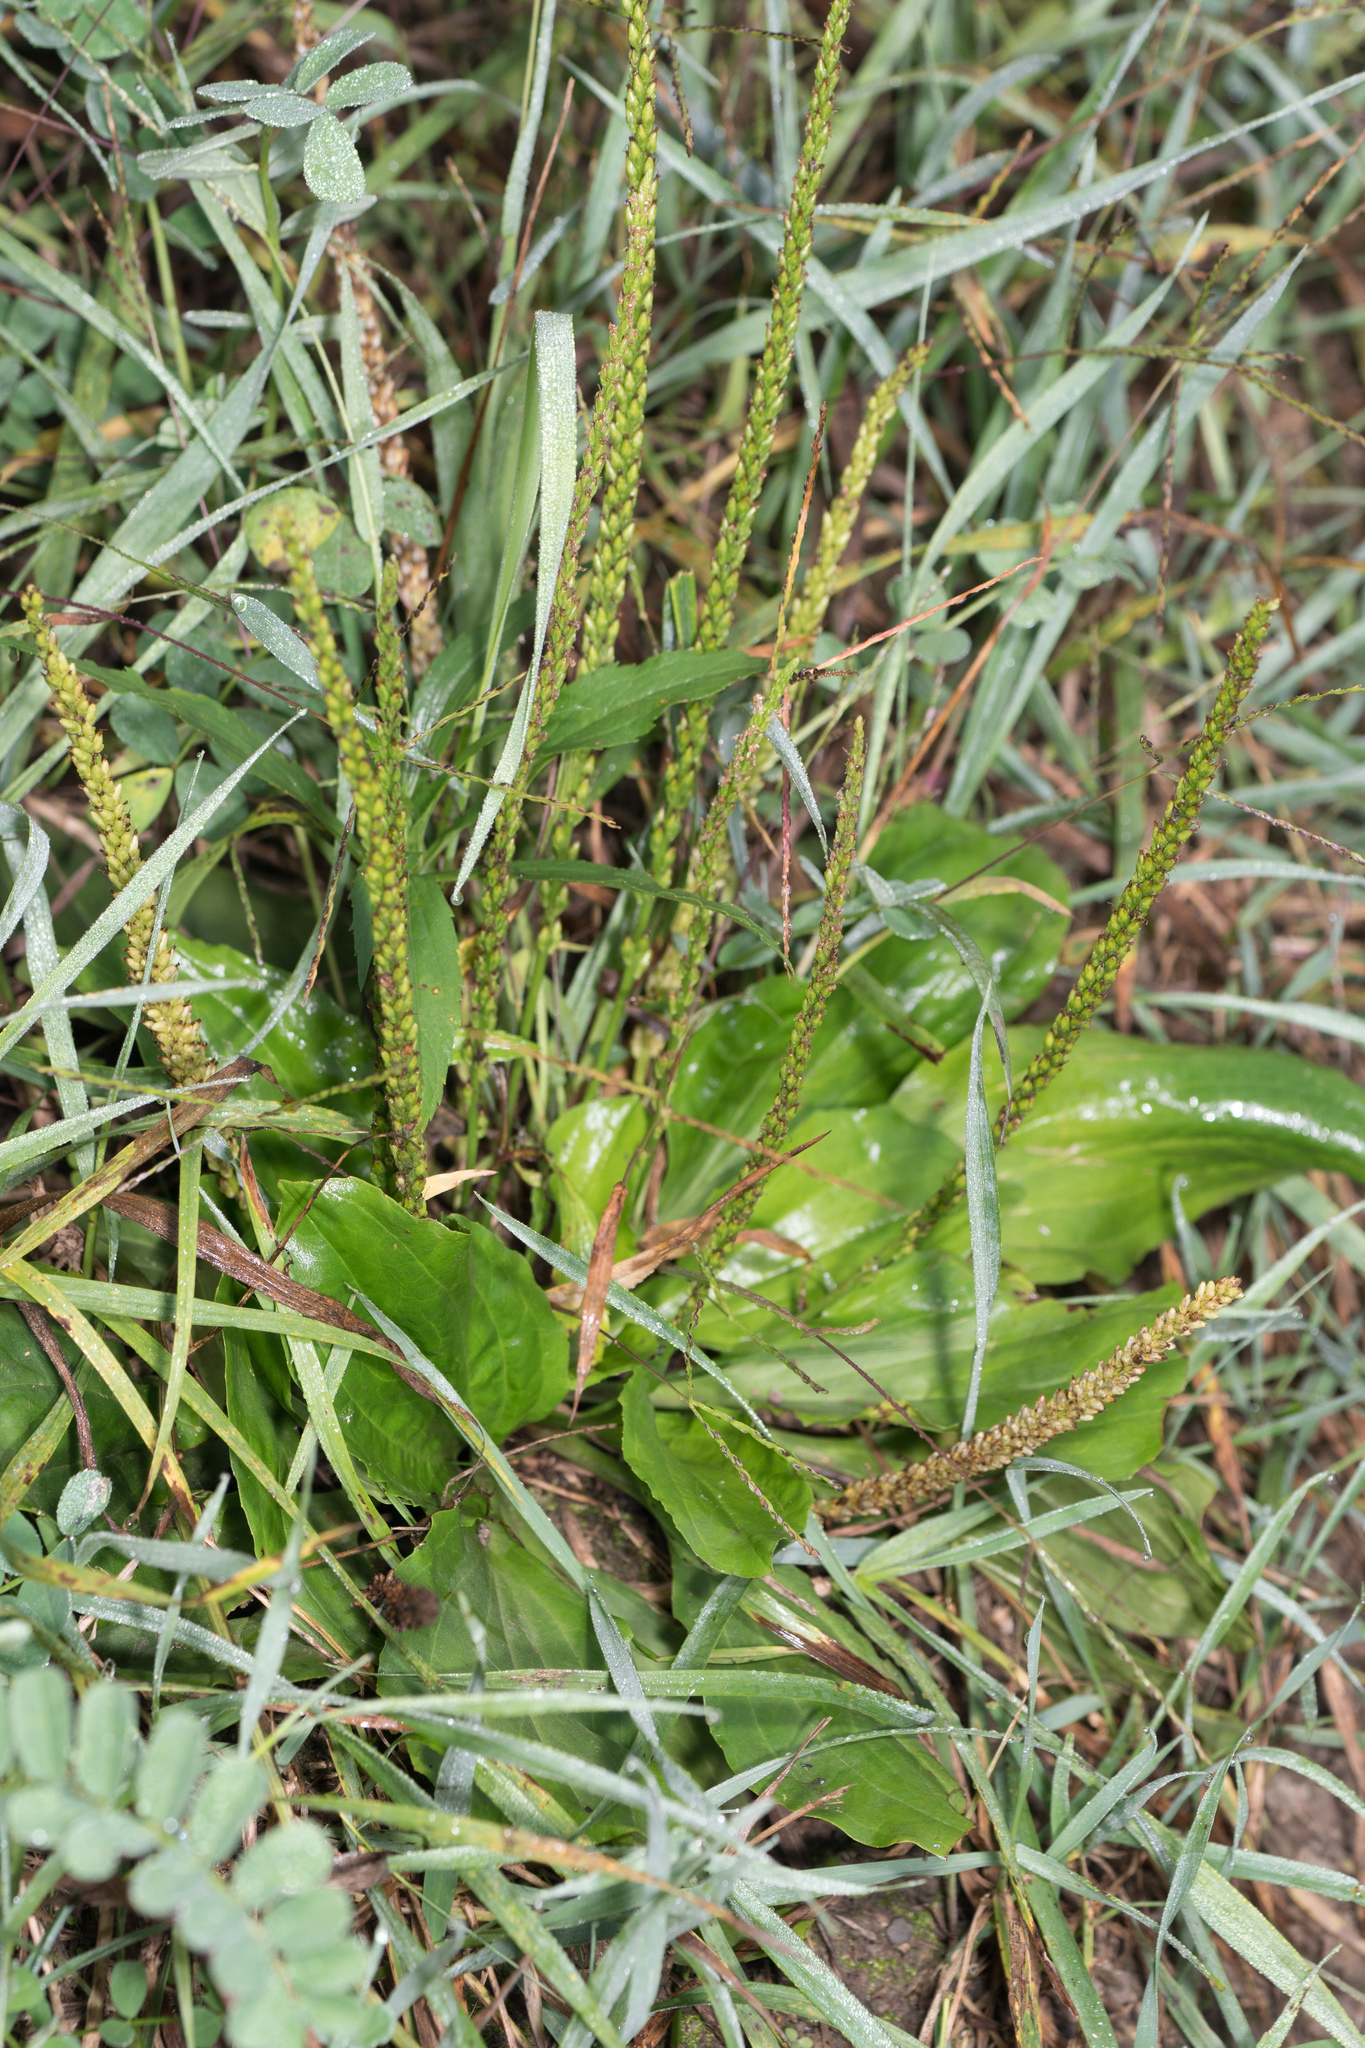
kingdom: Plantae
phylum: Tracheophyta
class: Magnoliopsida
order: Lamiales
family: Plantaginaceae
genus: Plantago
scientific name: Plantago major
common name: Common plantain
